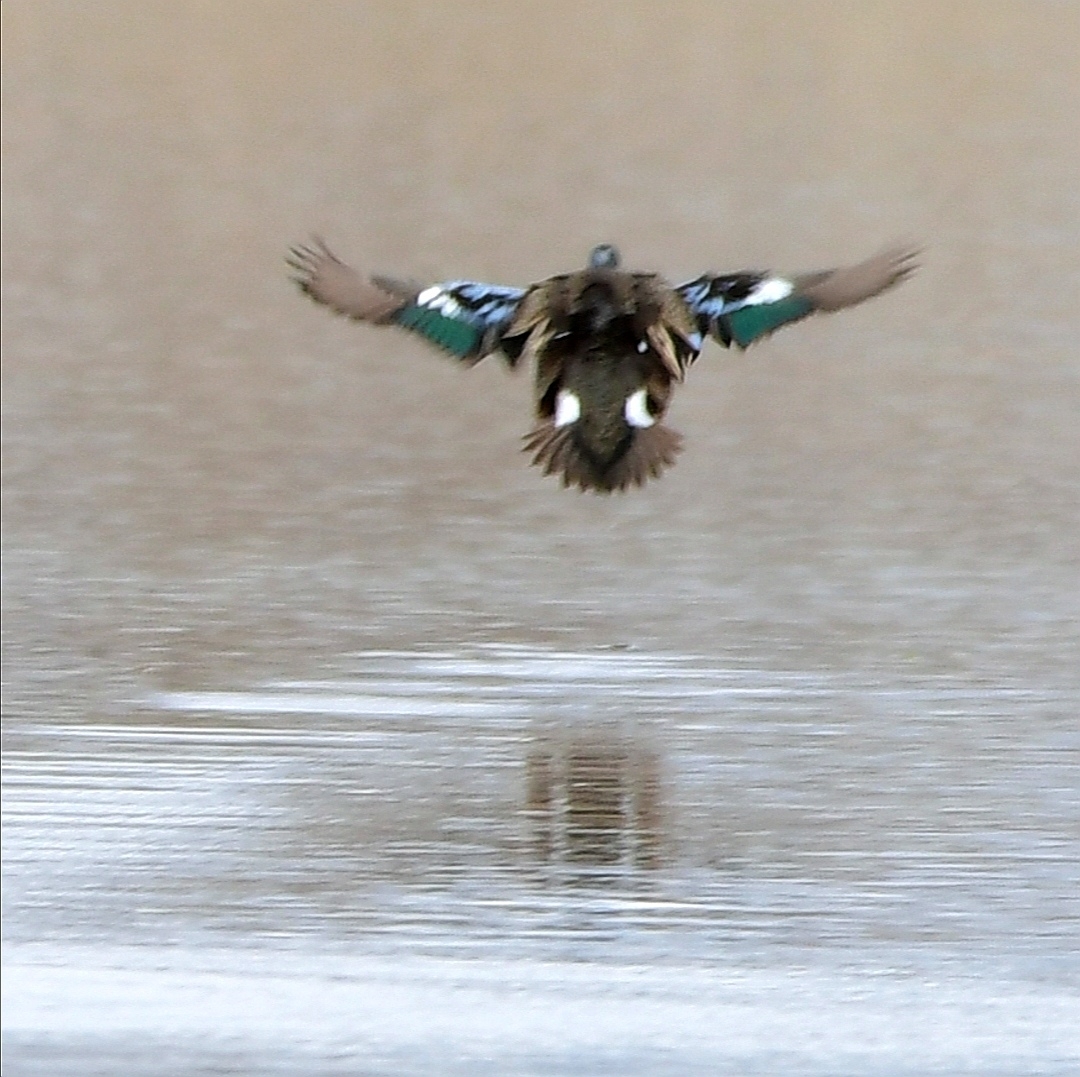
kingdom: Animalia
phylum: Chordata
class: Aves
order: Anseriformes
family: Anatidae
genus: Spatula
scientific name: Spatula discors
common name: Blue-winged teal
